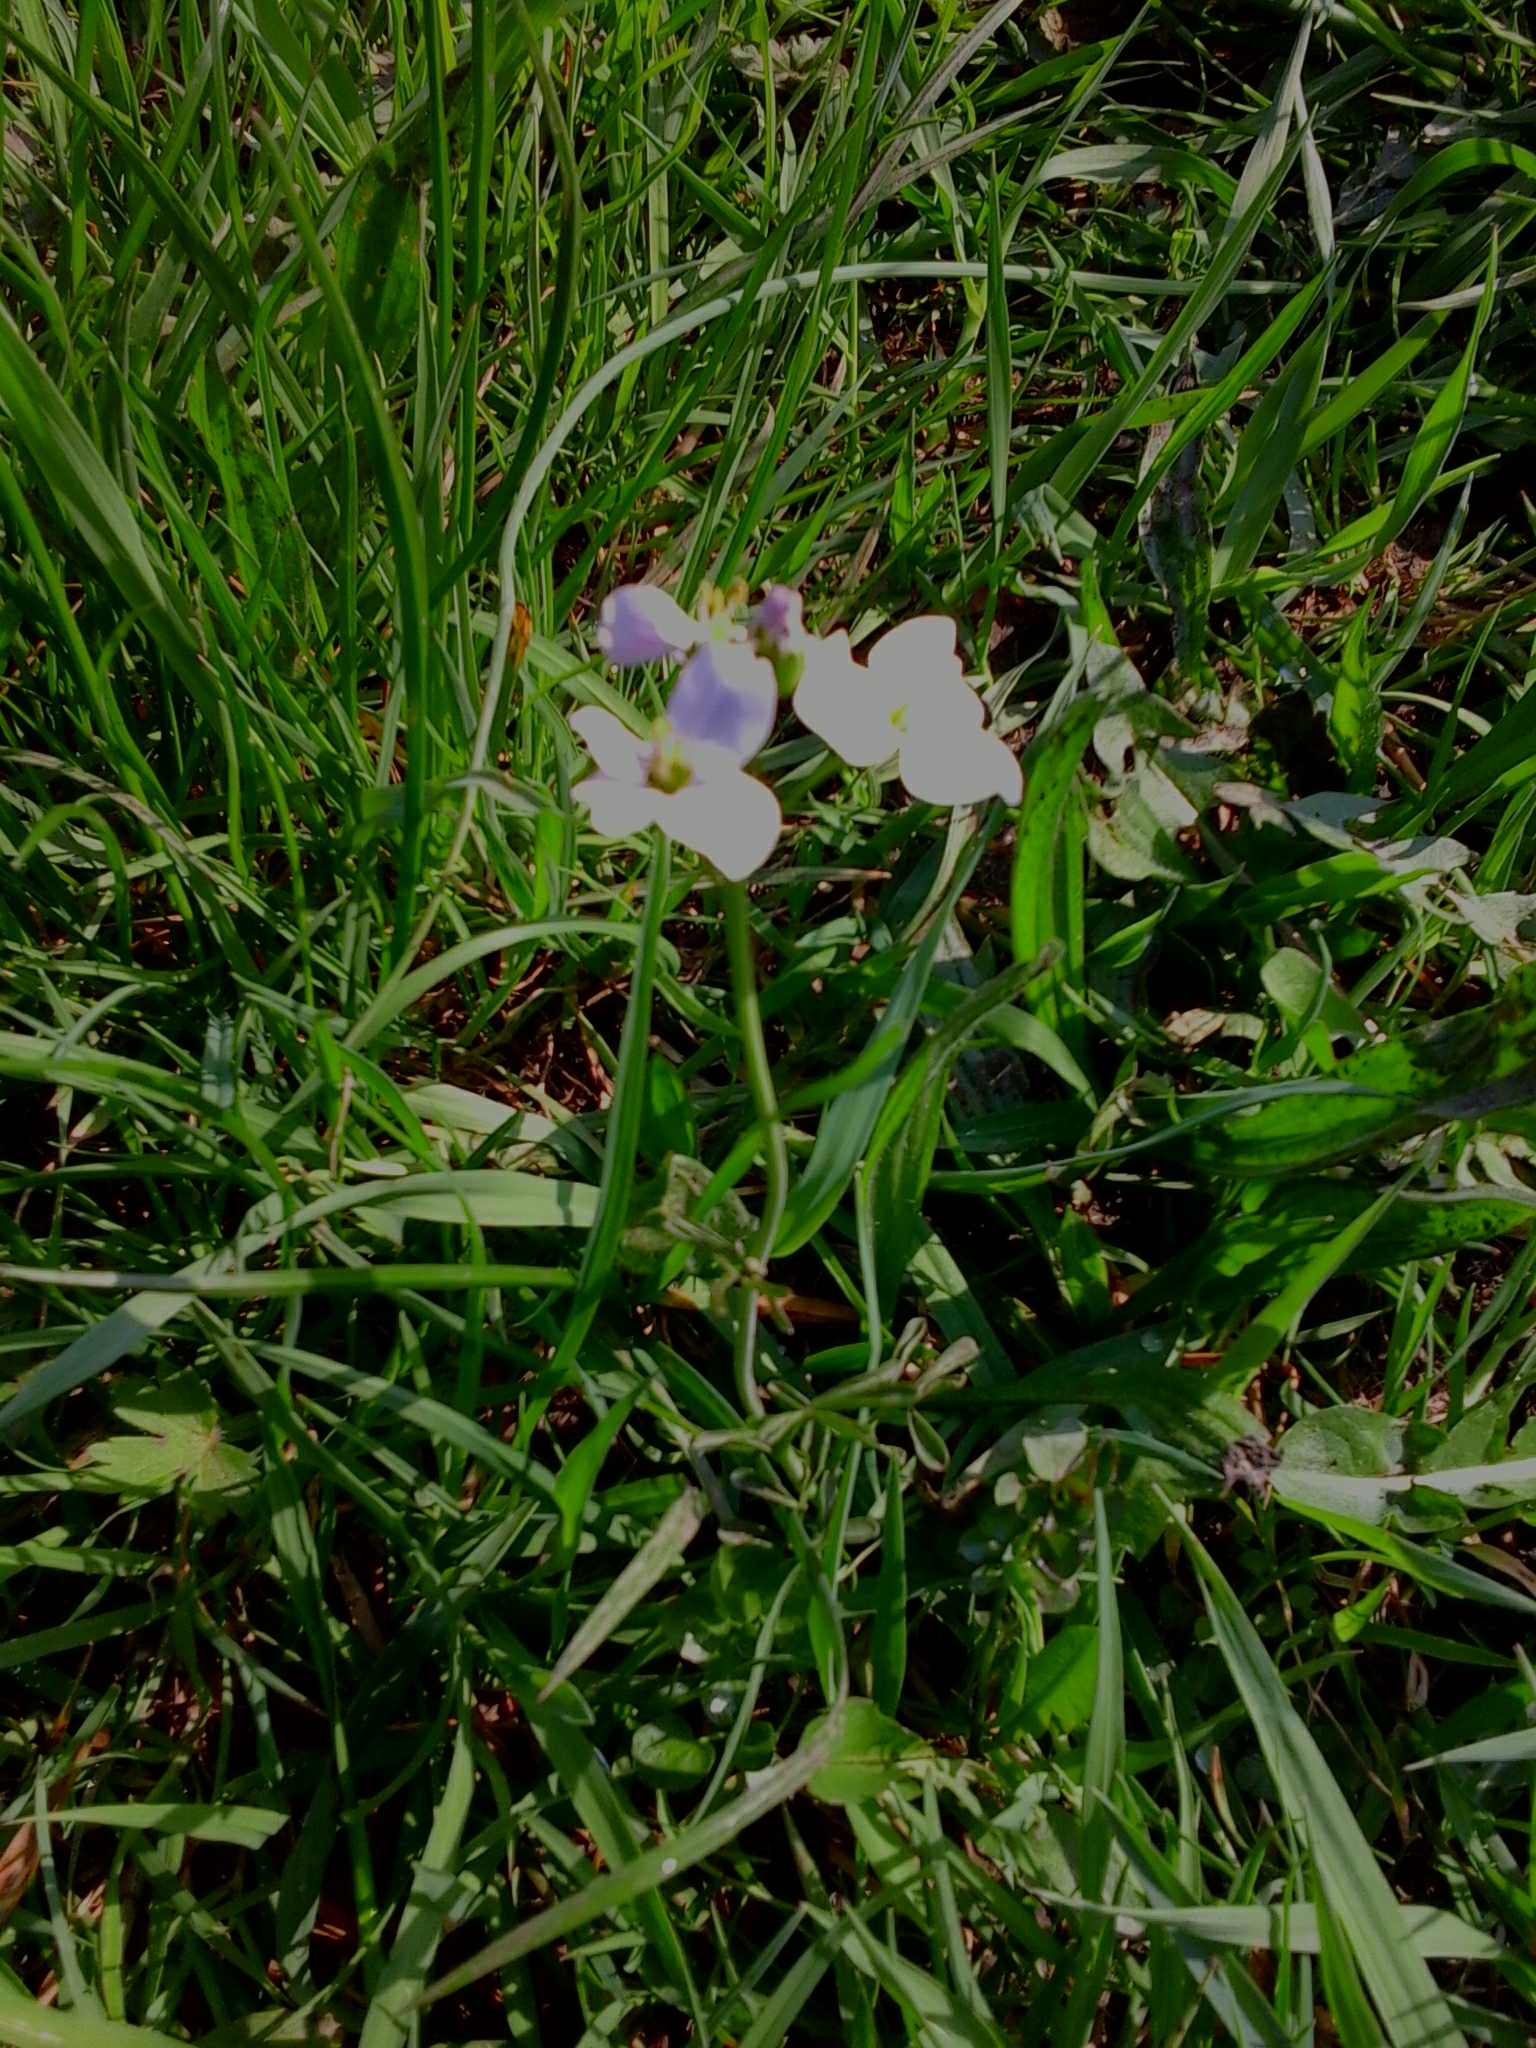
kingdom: Plantae
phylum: Tracheophyta
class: Magnoliopsida
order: Brassicales
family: Brassicaceae
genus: Cardamine
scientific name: Cardamine pratensis
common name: Cuckoo flower
